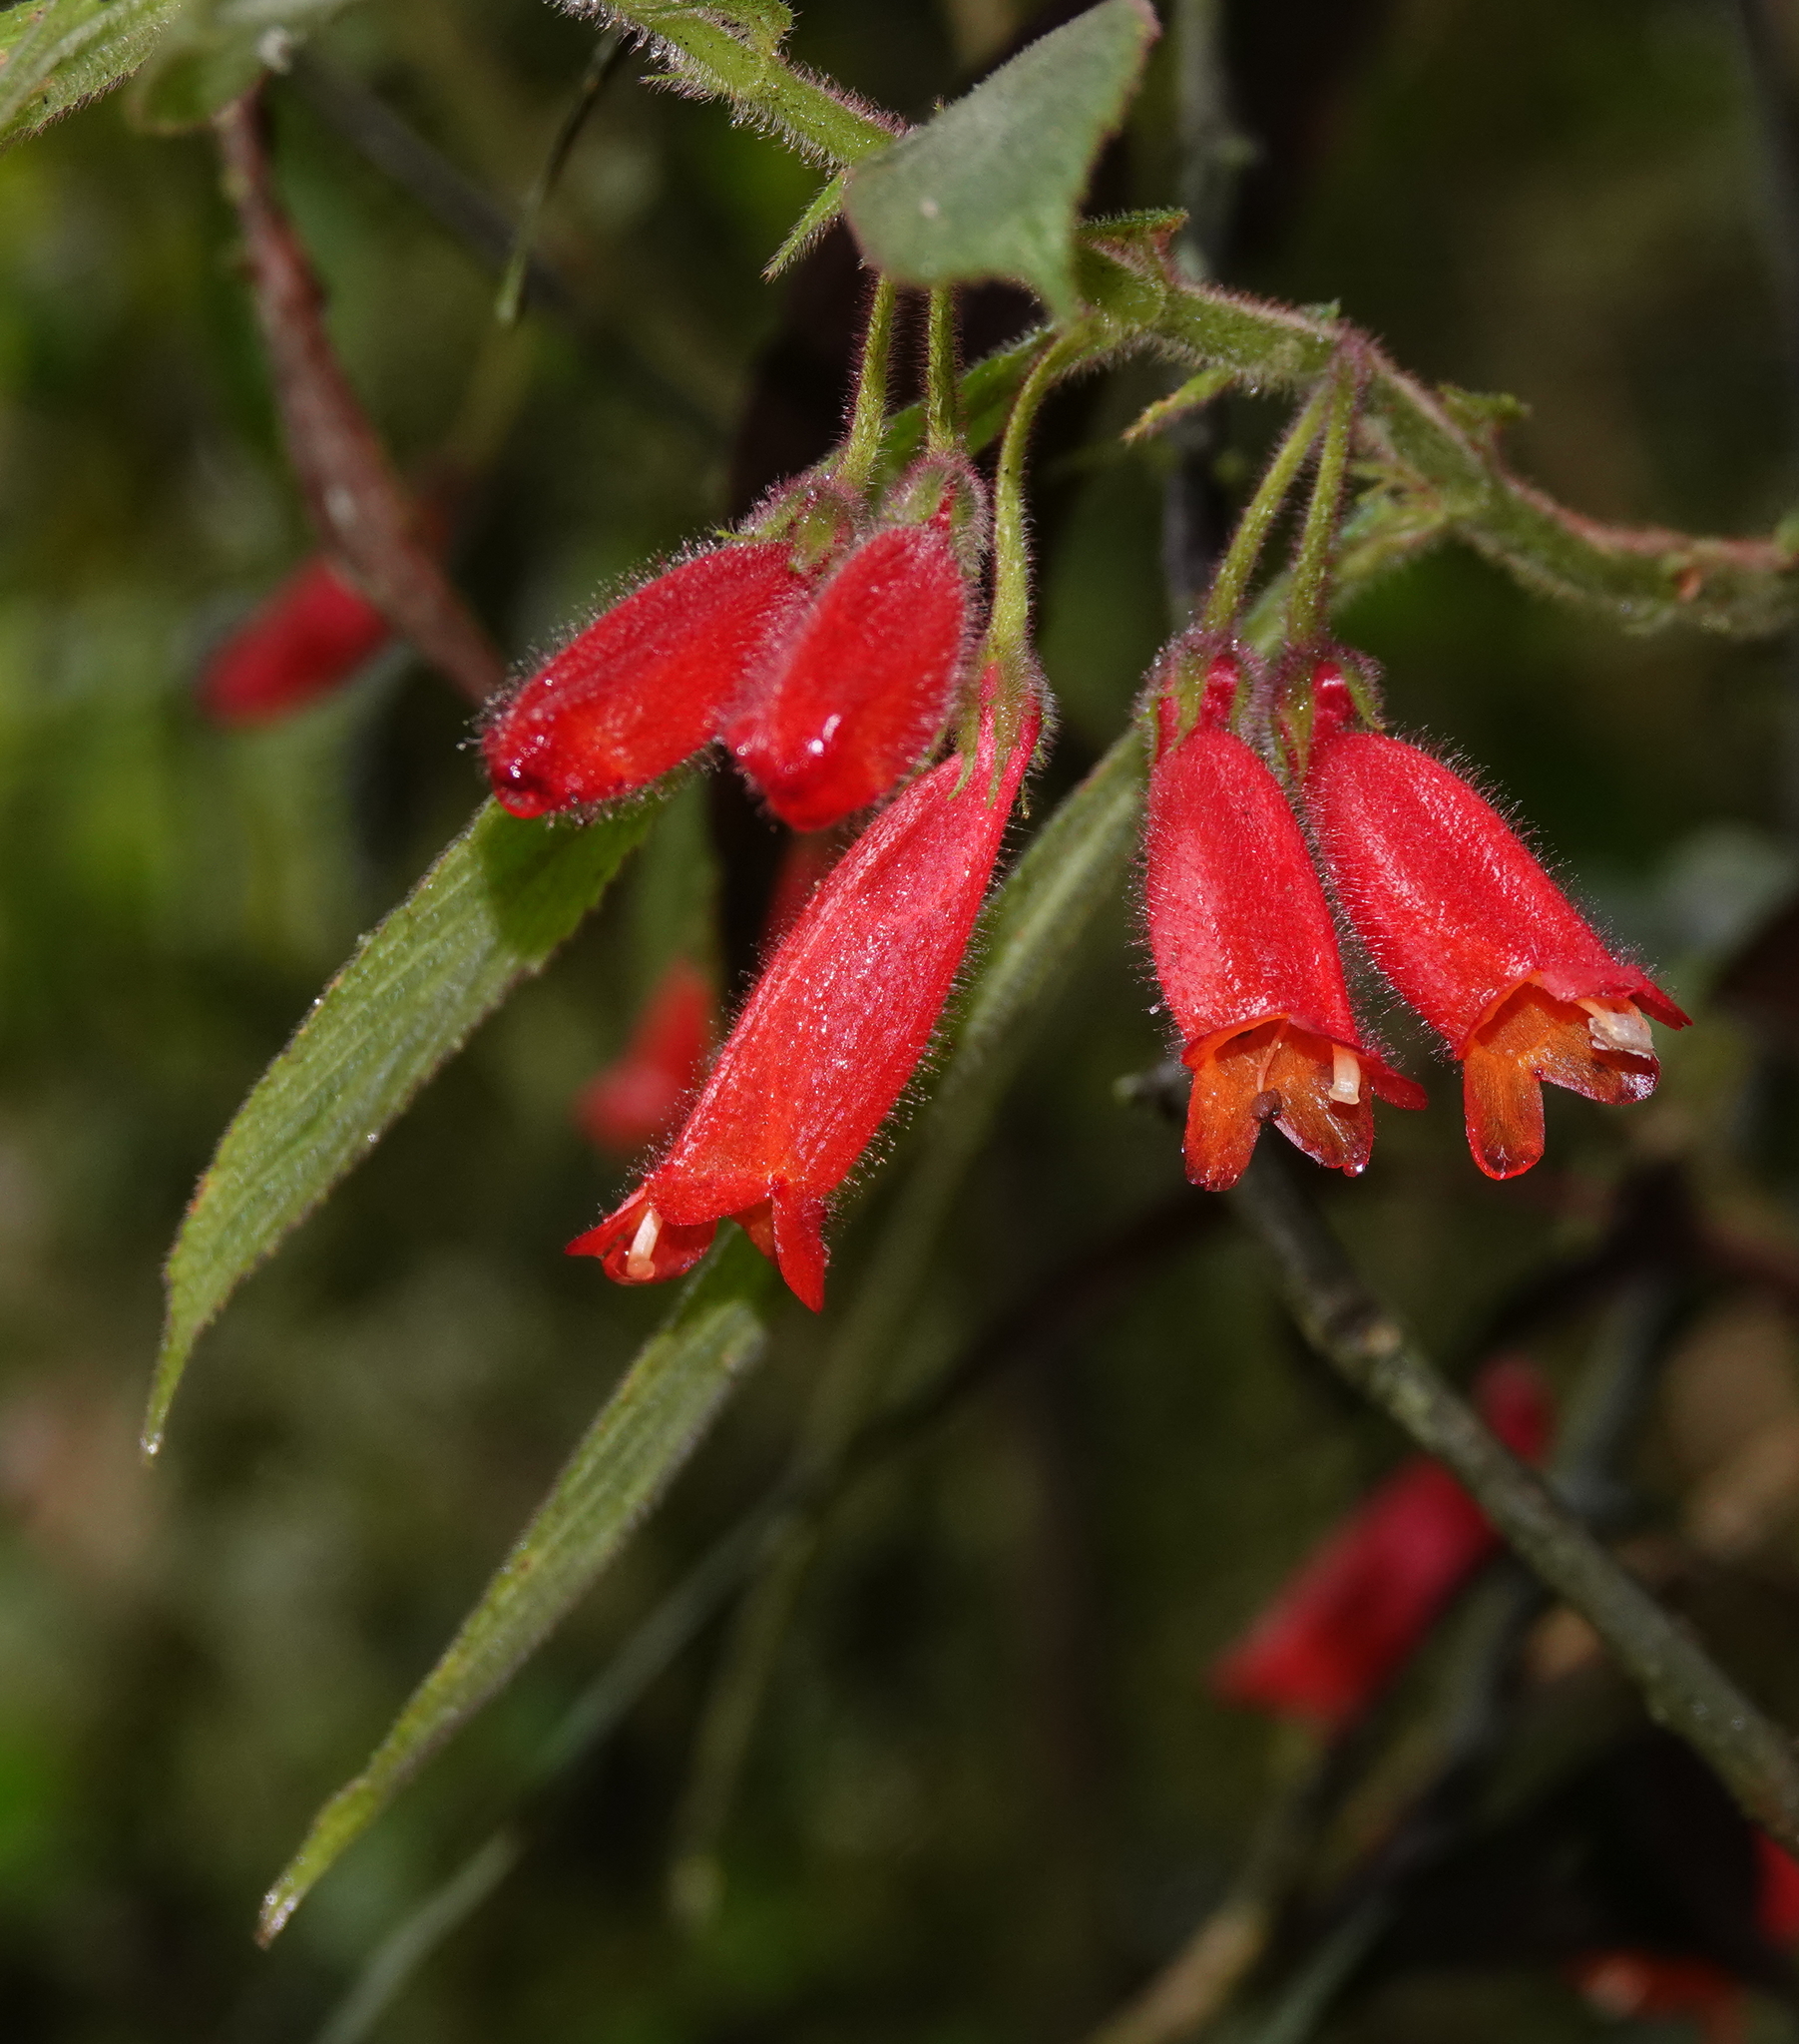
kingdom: Plantae
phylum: Tracheophyta
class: Magnoliopsida
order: Lamiales
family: Gesneriaceae
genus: Columnea
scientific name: Columnea anisophylla
